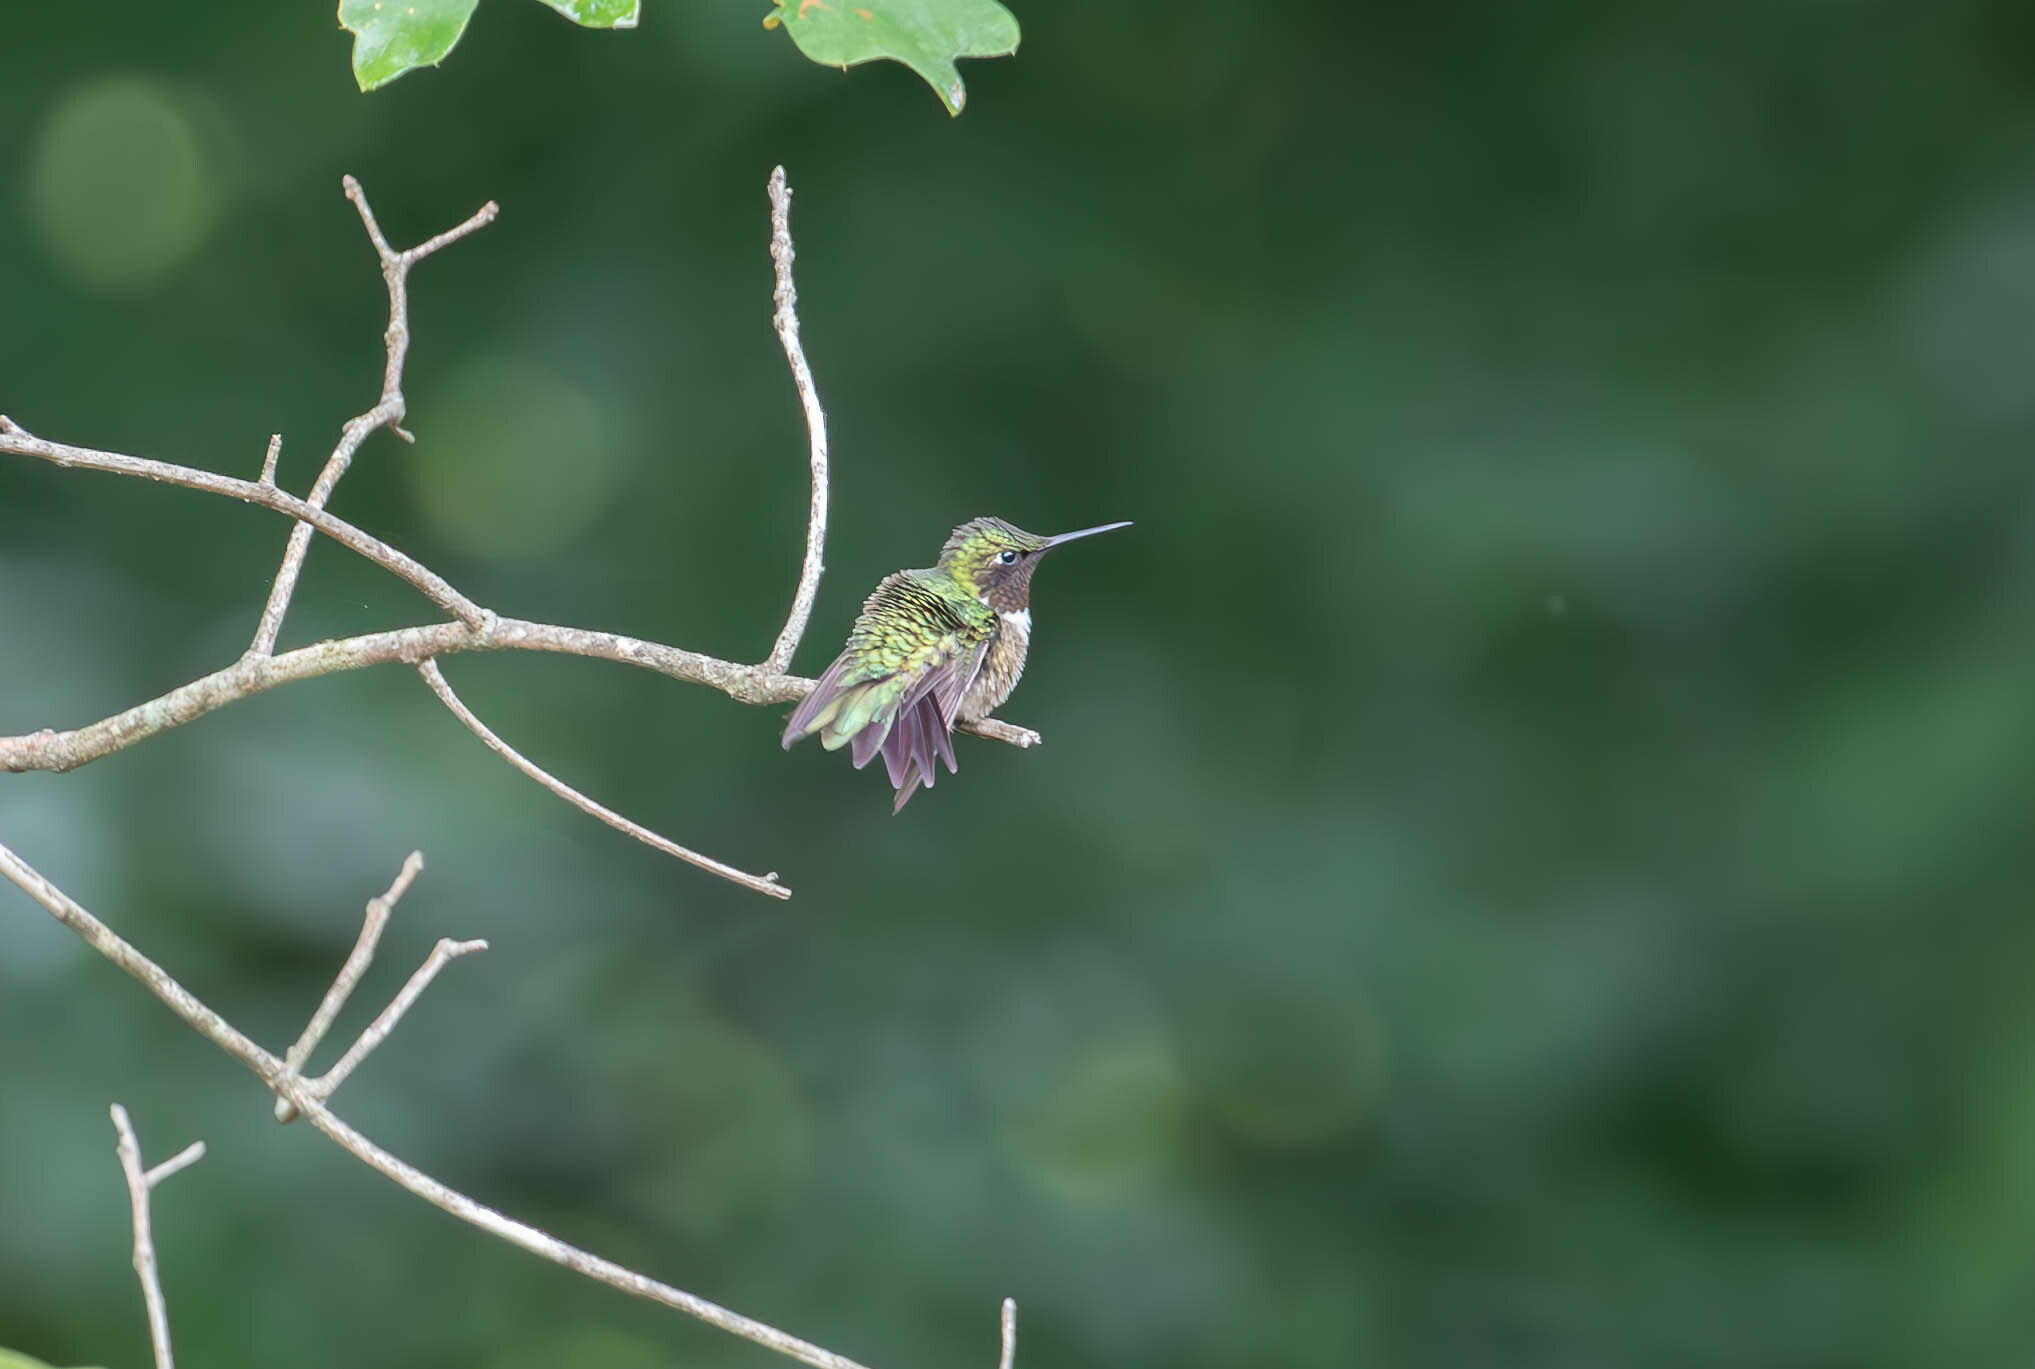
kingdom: Animalia
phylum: Chordata
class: Aves
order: Apodiformes
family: Trochilidae
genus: Archilochus
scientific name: Archilochus colubris
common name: Ruby-throated hummingbird
